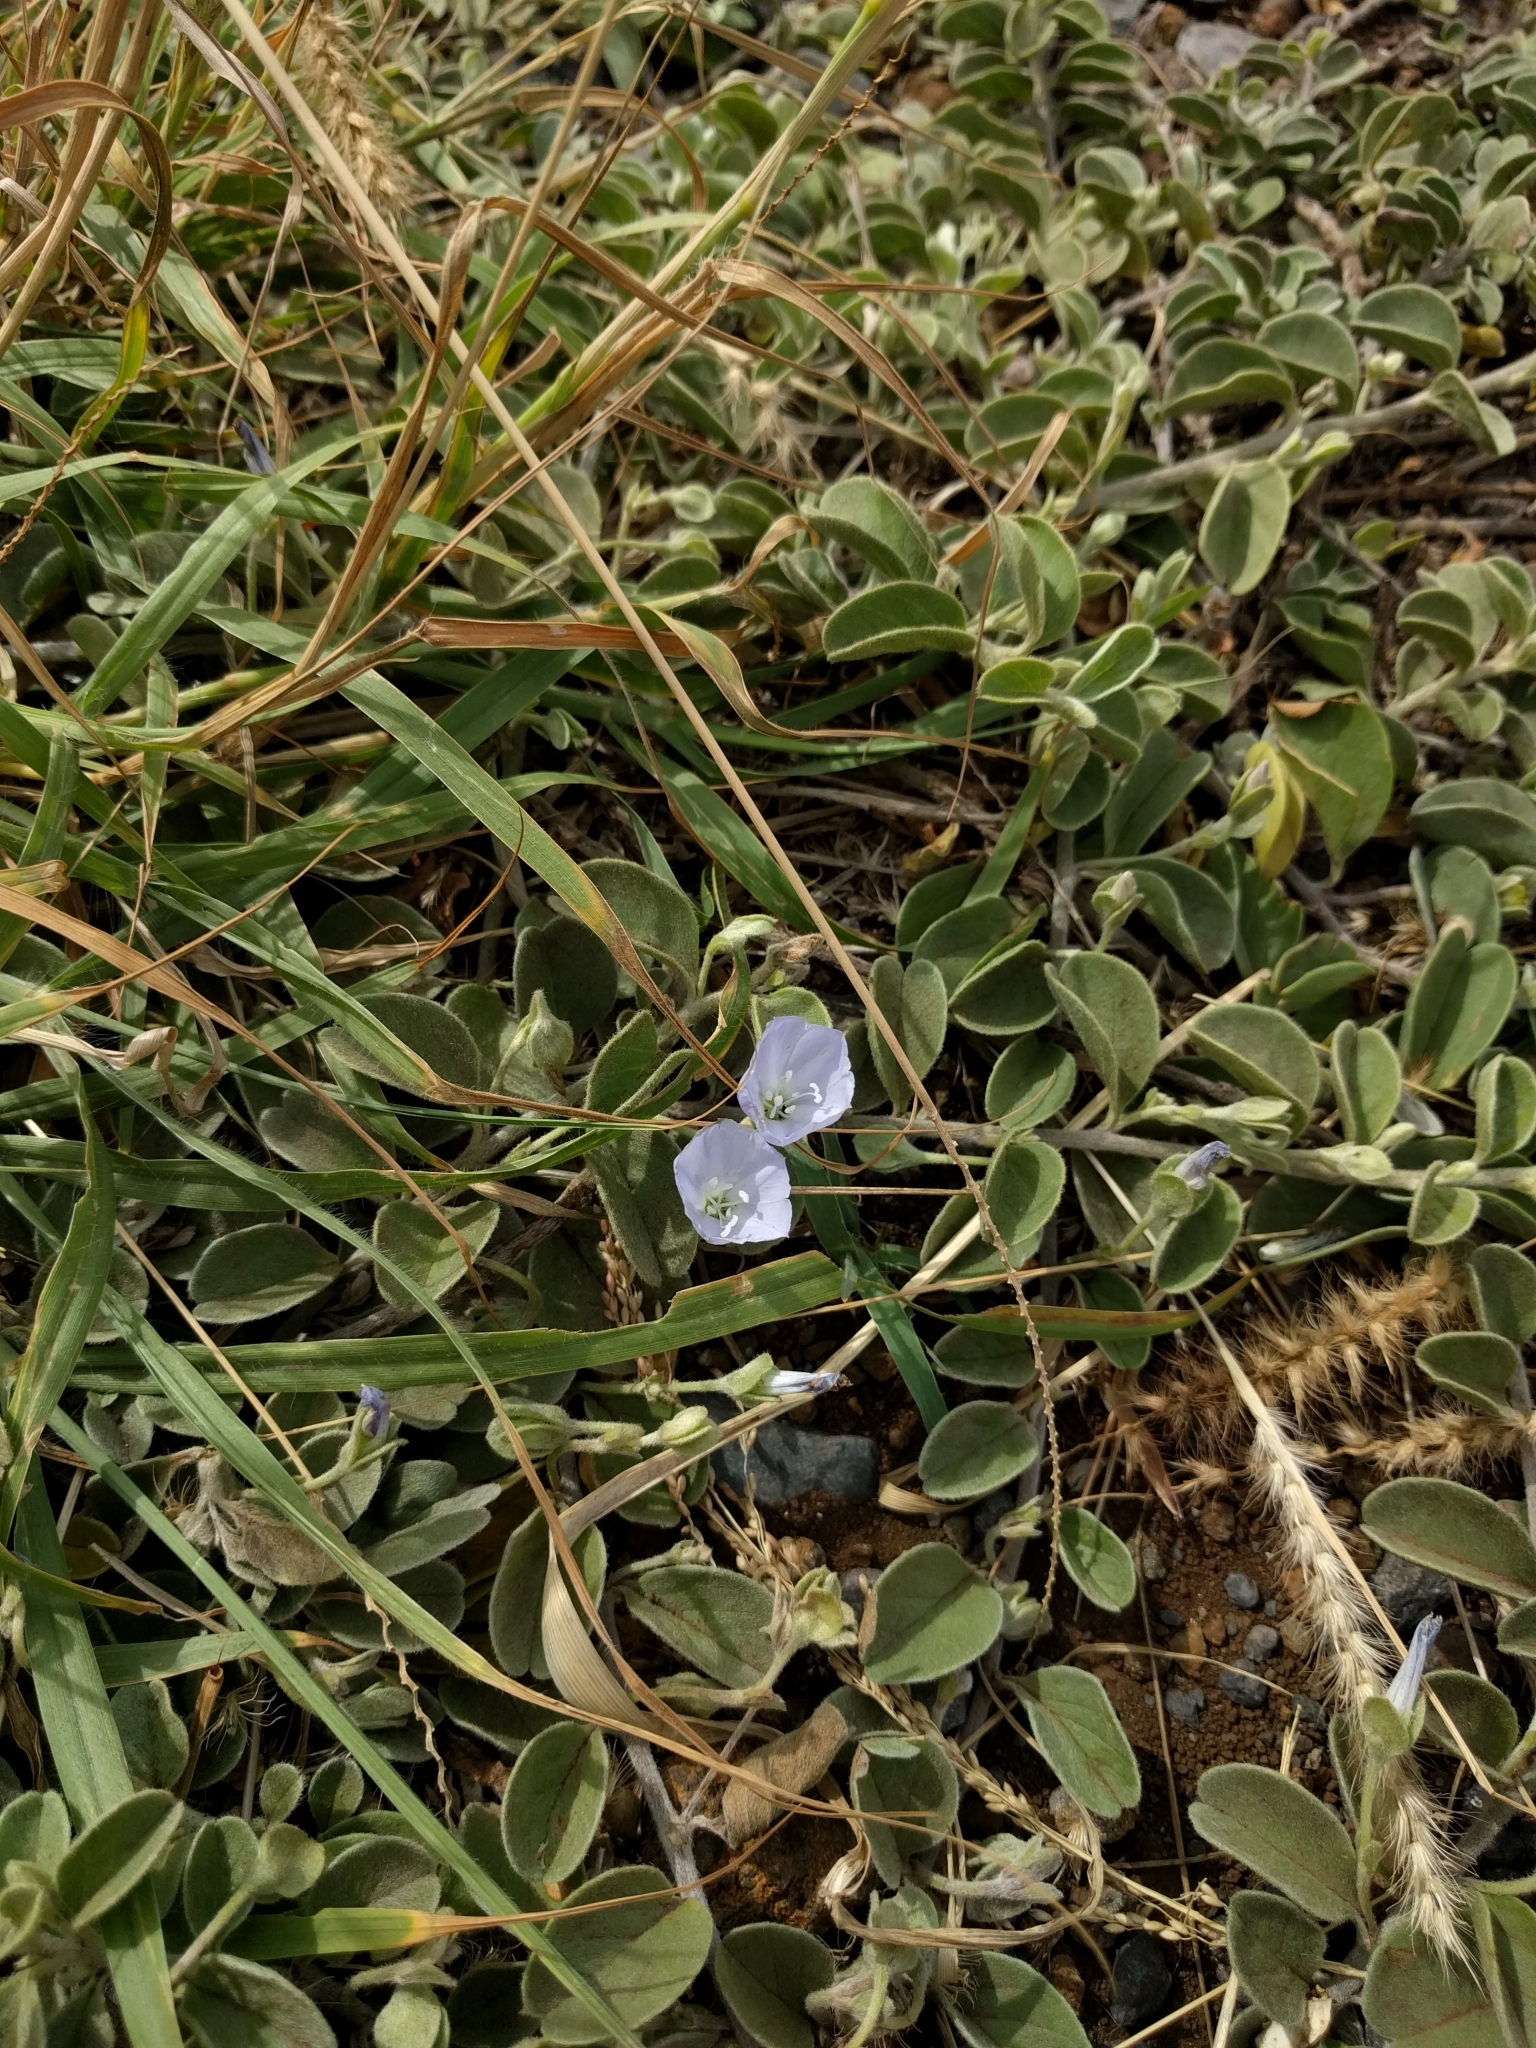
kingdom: Plantae
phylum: Tracheophyta
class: Magnoliopsida
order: Solanales
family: Convolvulaceae
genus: Jacquemontia
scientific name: Jacquemontia sandwicensis
